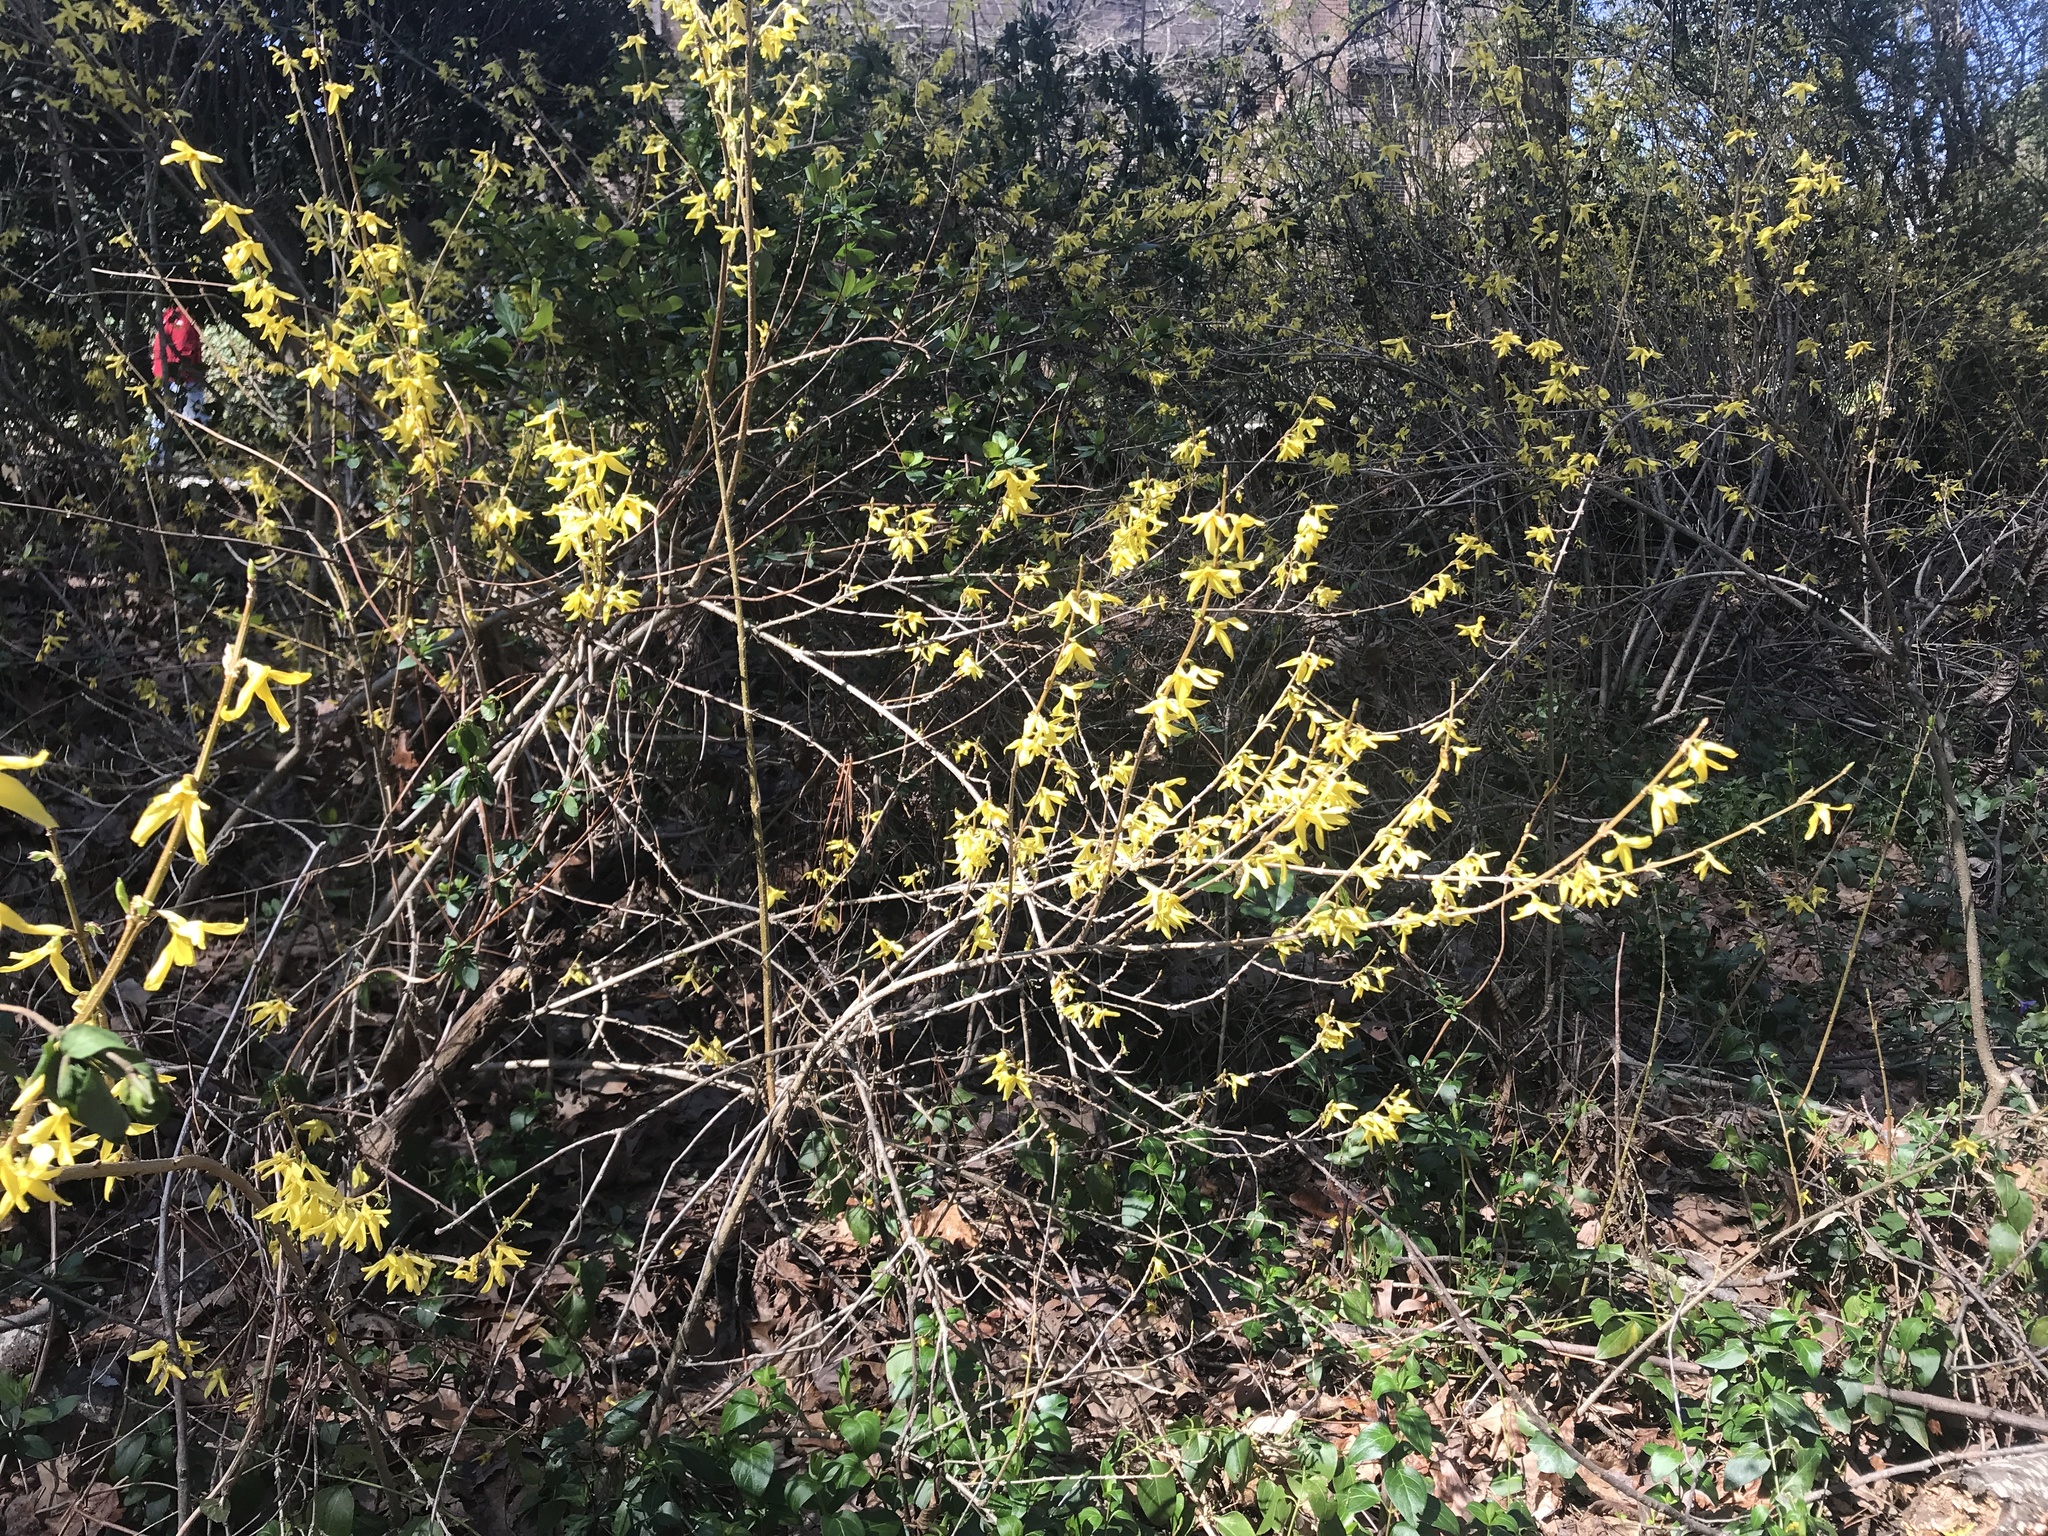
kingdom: Plantae
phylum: Tracheophyta
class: Magnoliopsida
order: Lamiales
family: Oleaceae
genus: Forsythia
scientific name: Forsythia intermedia
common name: Forsythia
